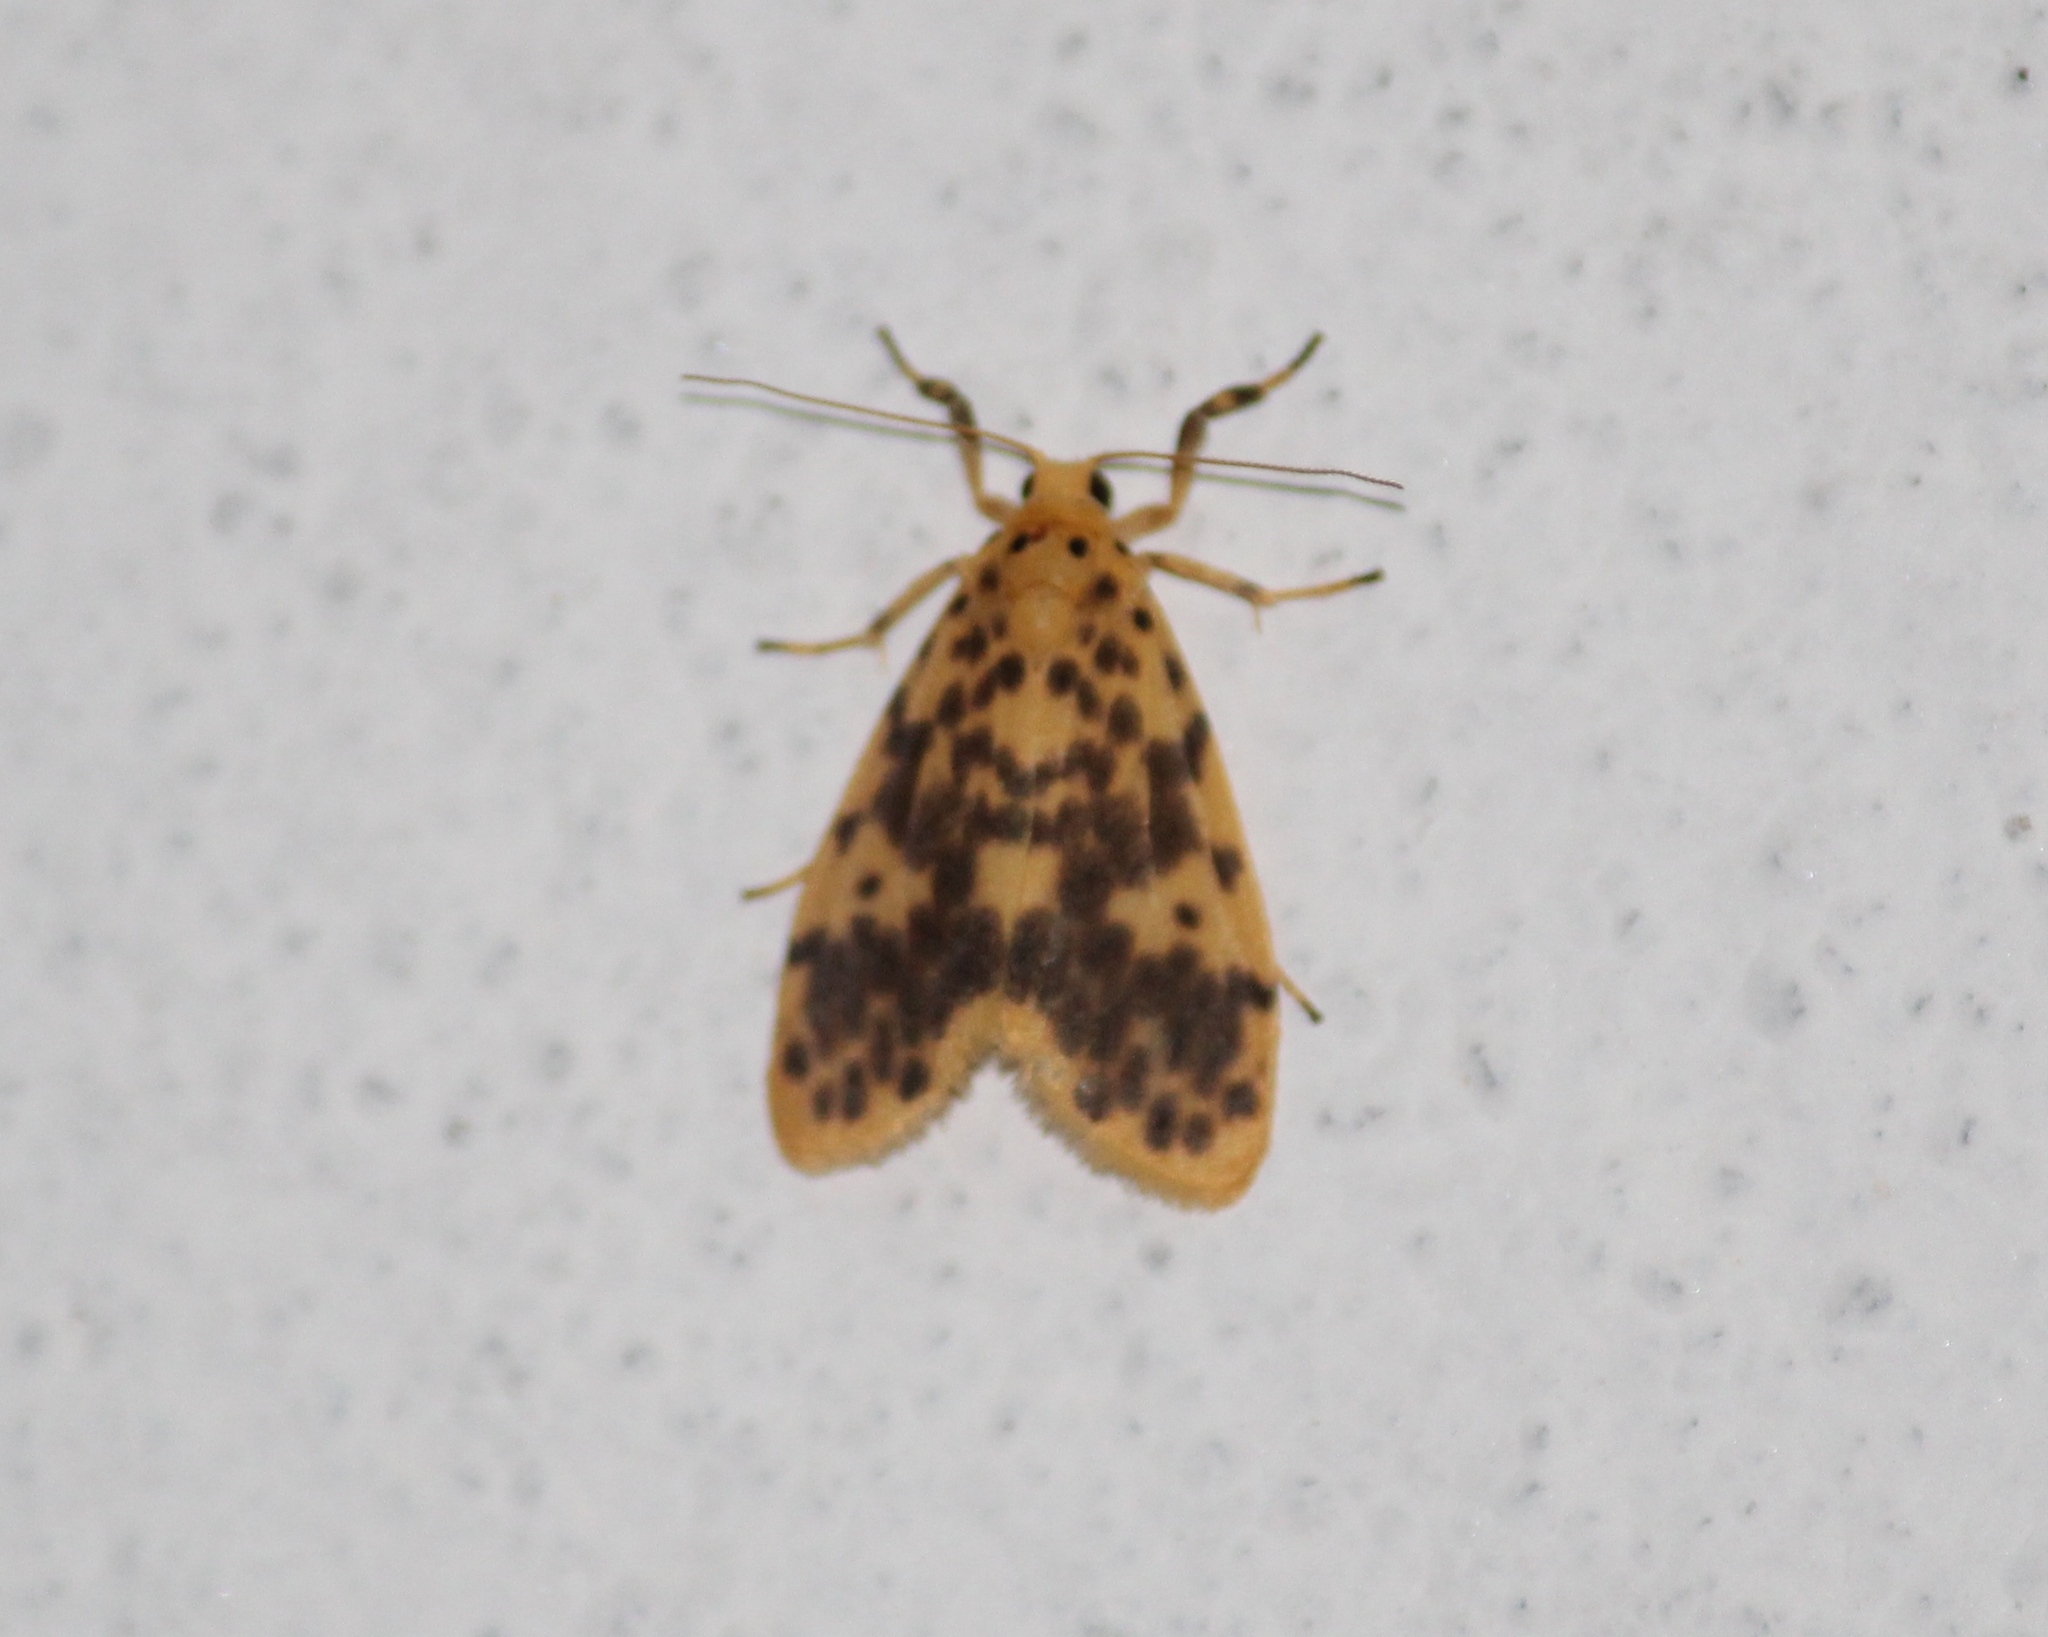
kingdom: Animalia
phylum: Arthropoda
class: Insecta
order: Lepidoptera
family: Erebidae
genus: Miltochrista
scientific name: Miltochrista obsoleta
